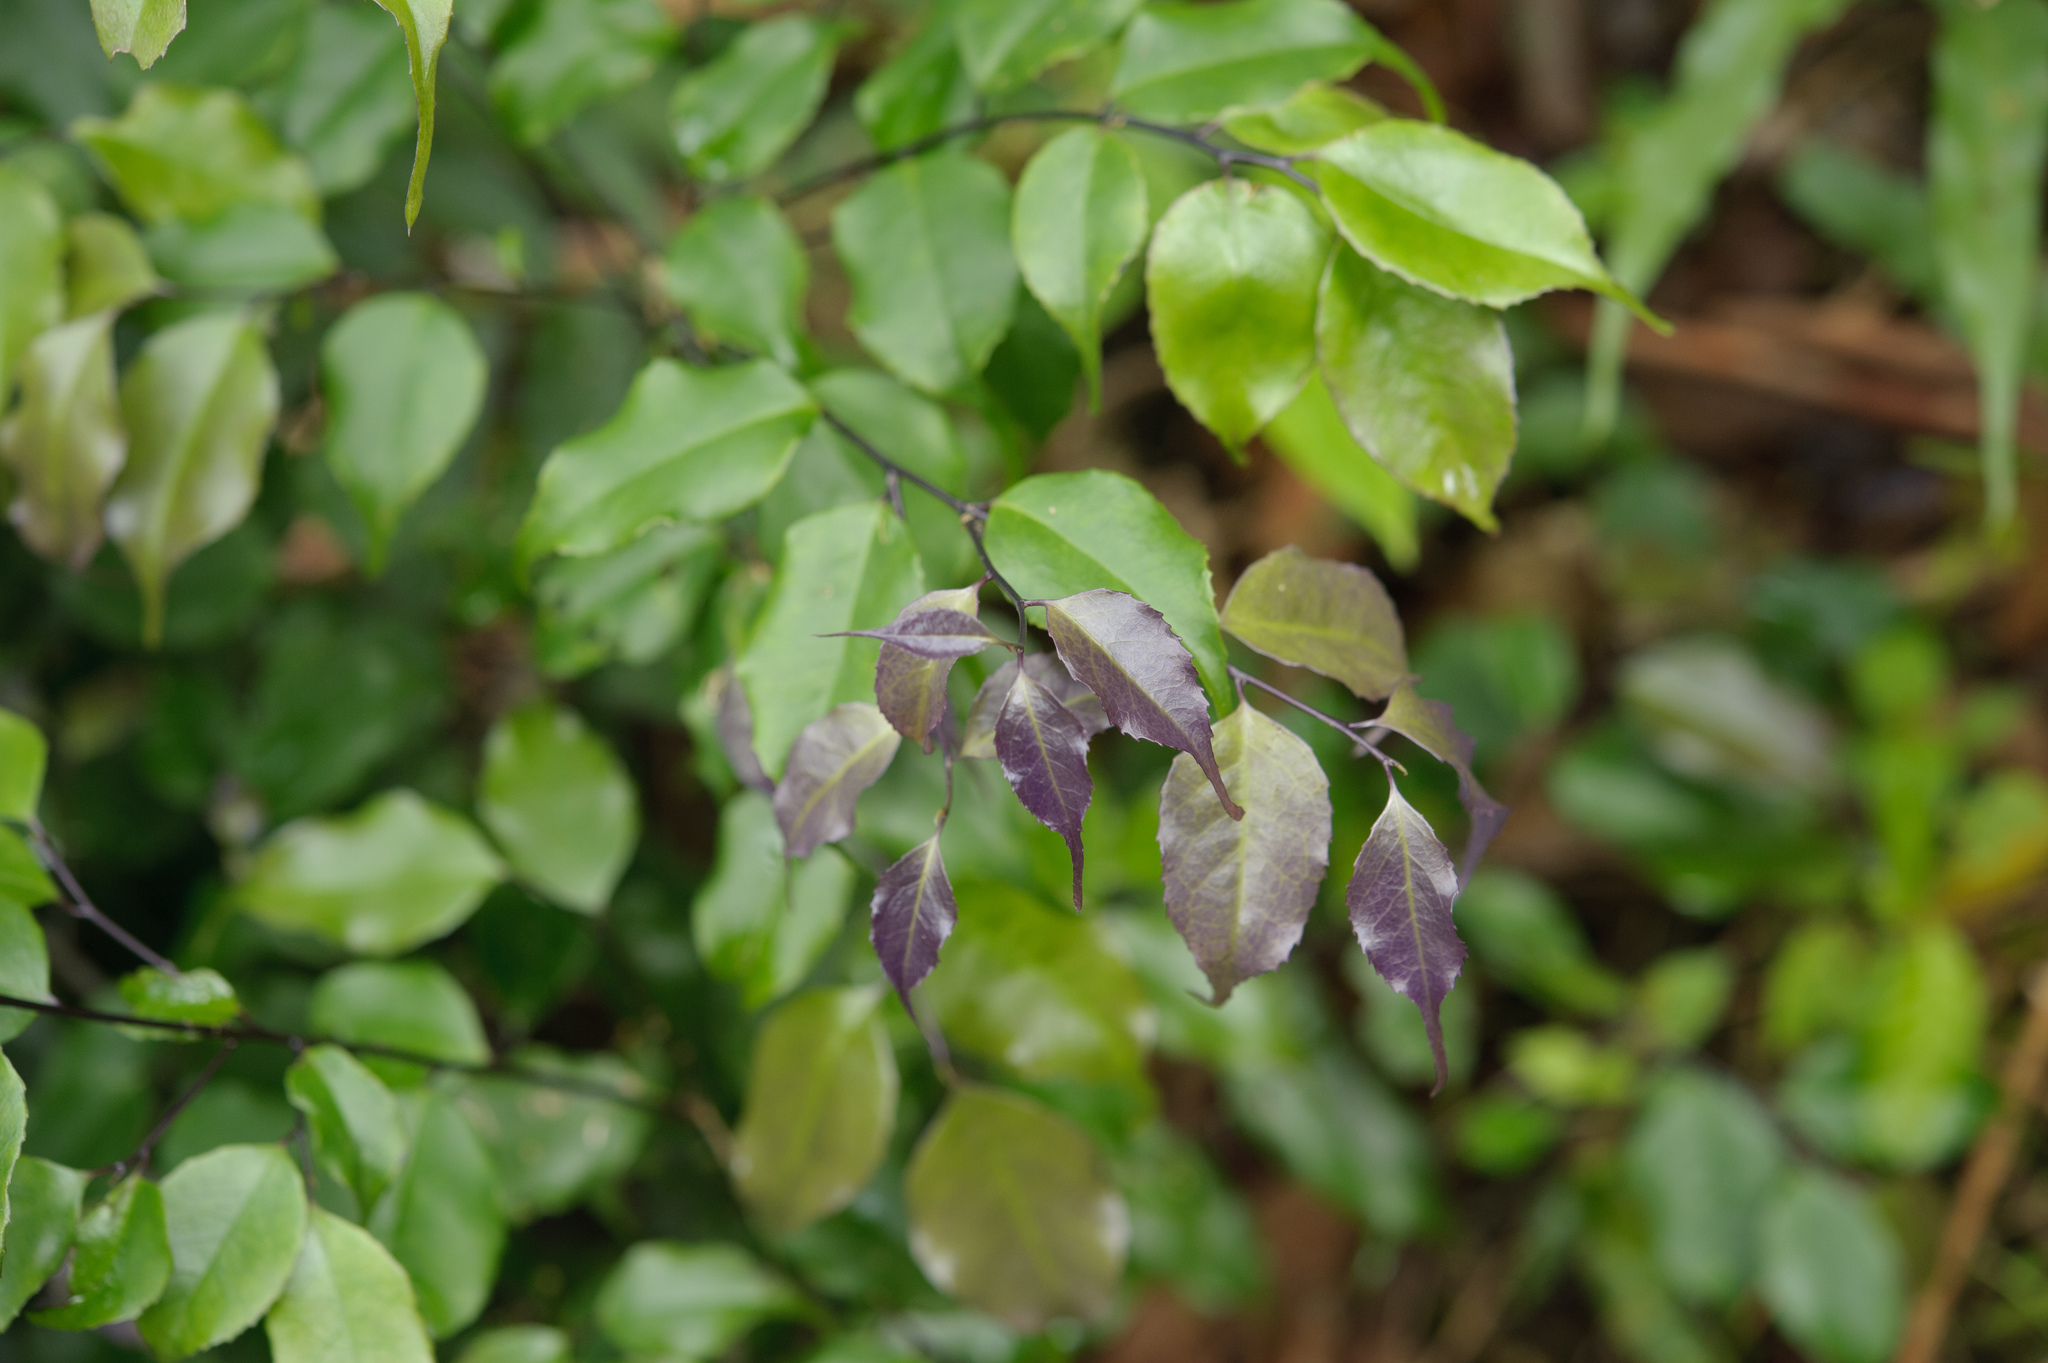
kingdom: Plantae
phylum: Tracheophyta
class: Magnoliopsida
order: Ericales
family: Symplocaceae
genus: Symplocos
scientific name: Symplocos sumuntia
